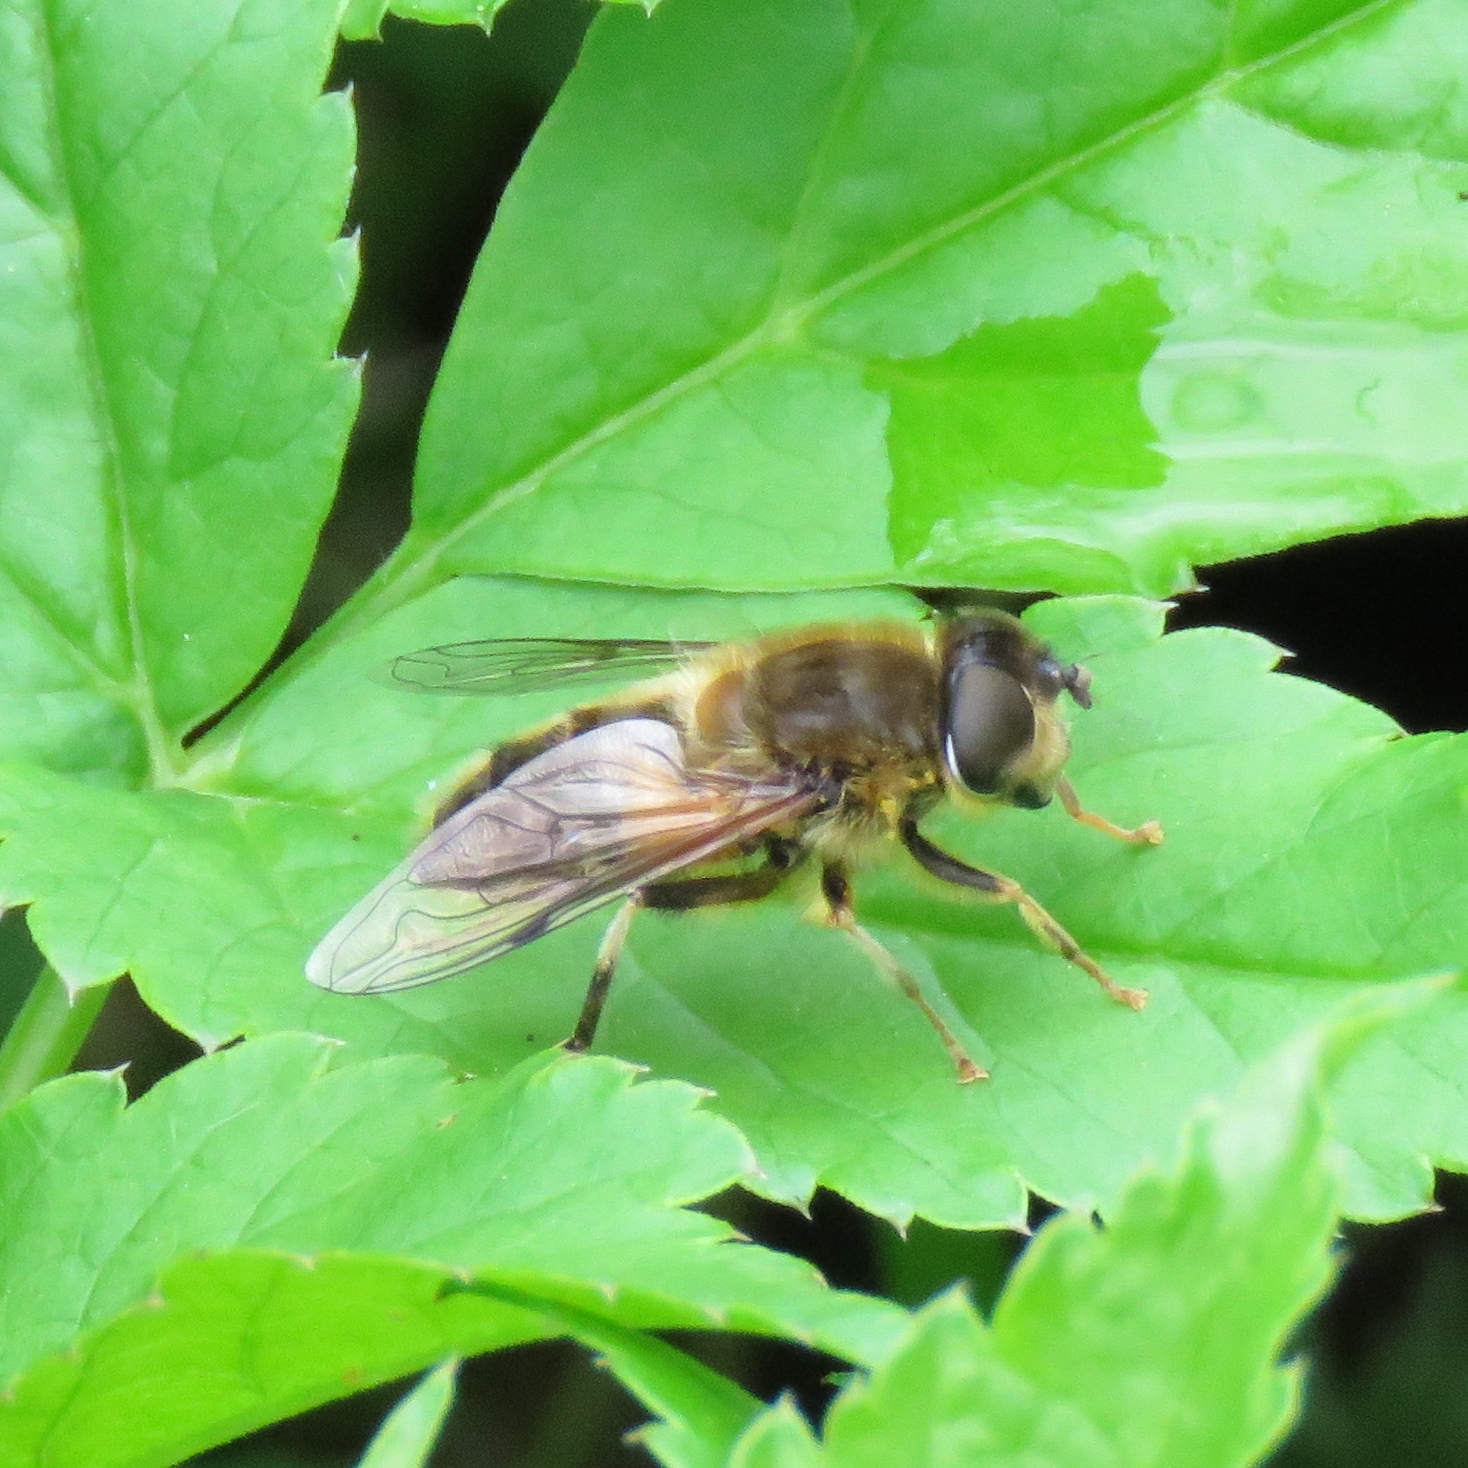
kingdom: Animalia
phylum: Arthropoda
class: Insecta
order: Diptera
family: Syrphidae
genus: Eristalis
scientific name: Eristalis pertinax
